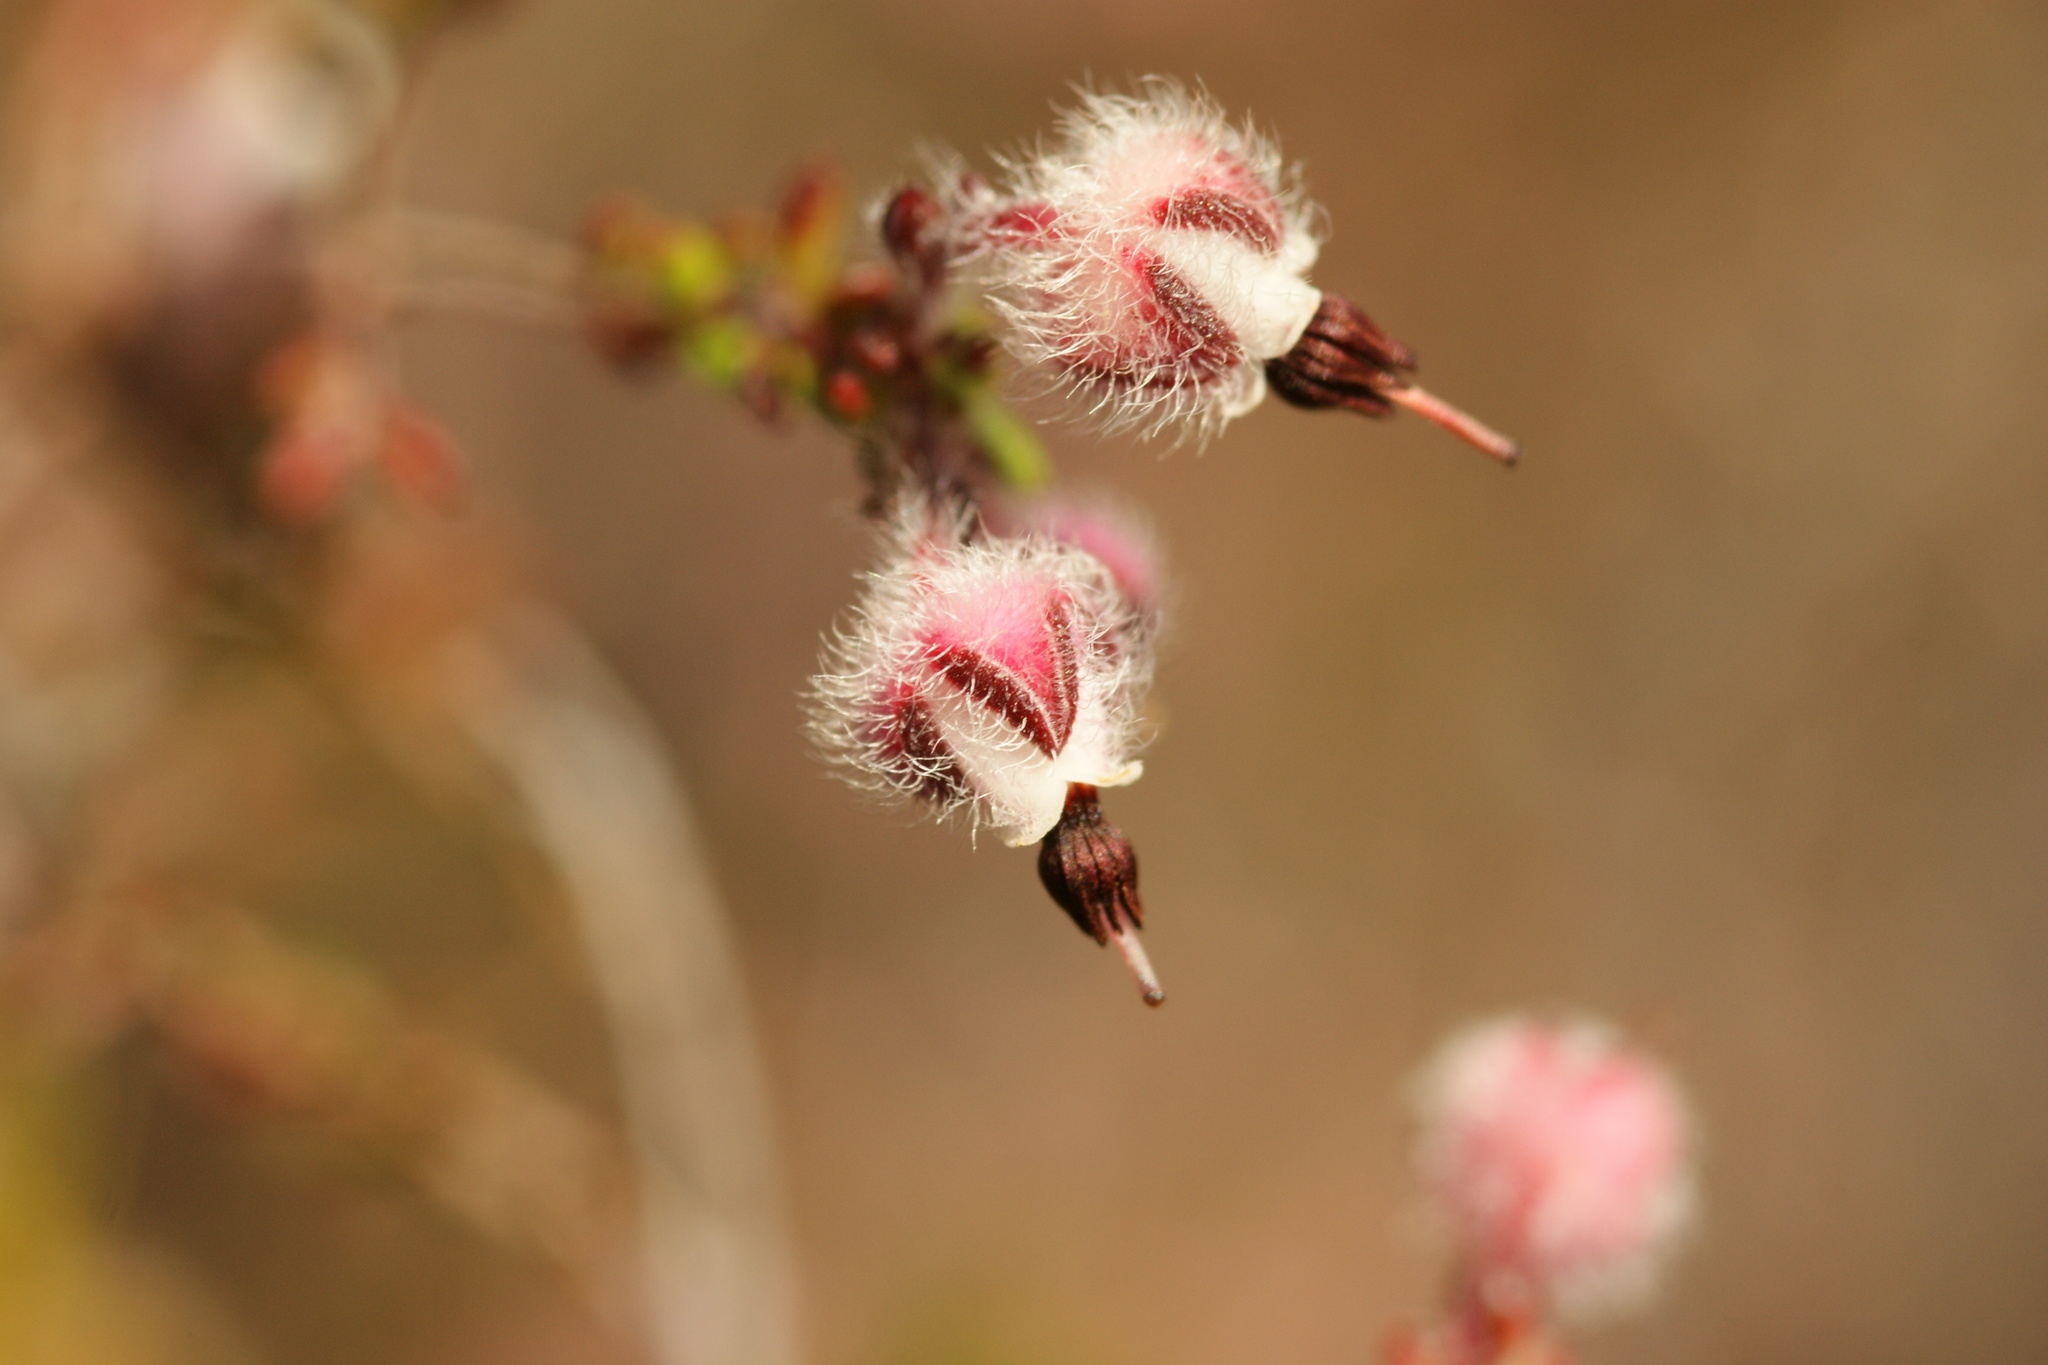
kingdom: Plantae
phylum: Tracheophyta
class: Magnoliopsida
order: Ericales
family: Ericaceae
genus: Erica
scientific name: Erica bruniades
